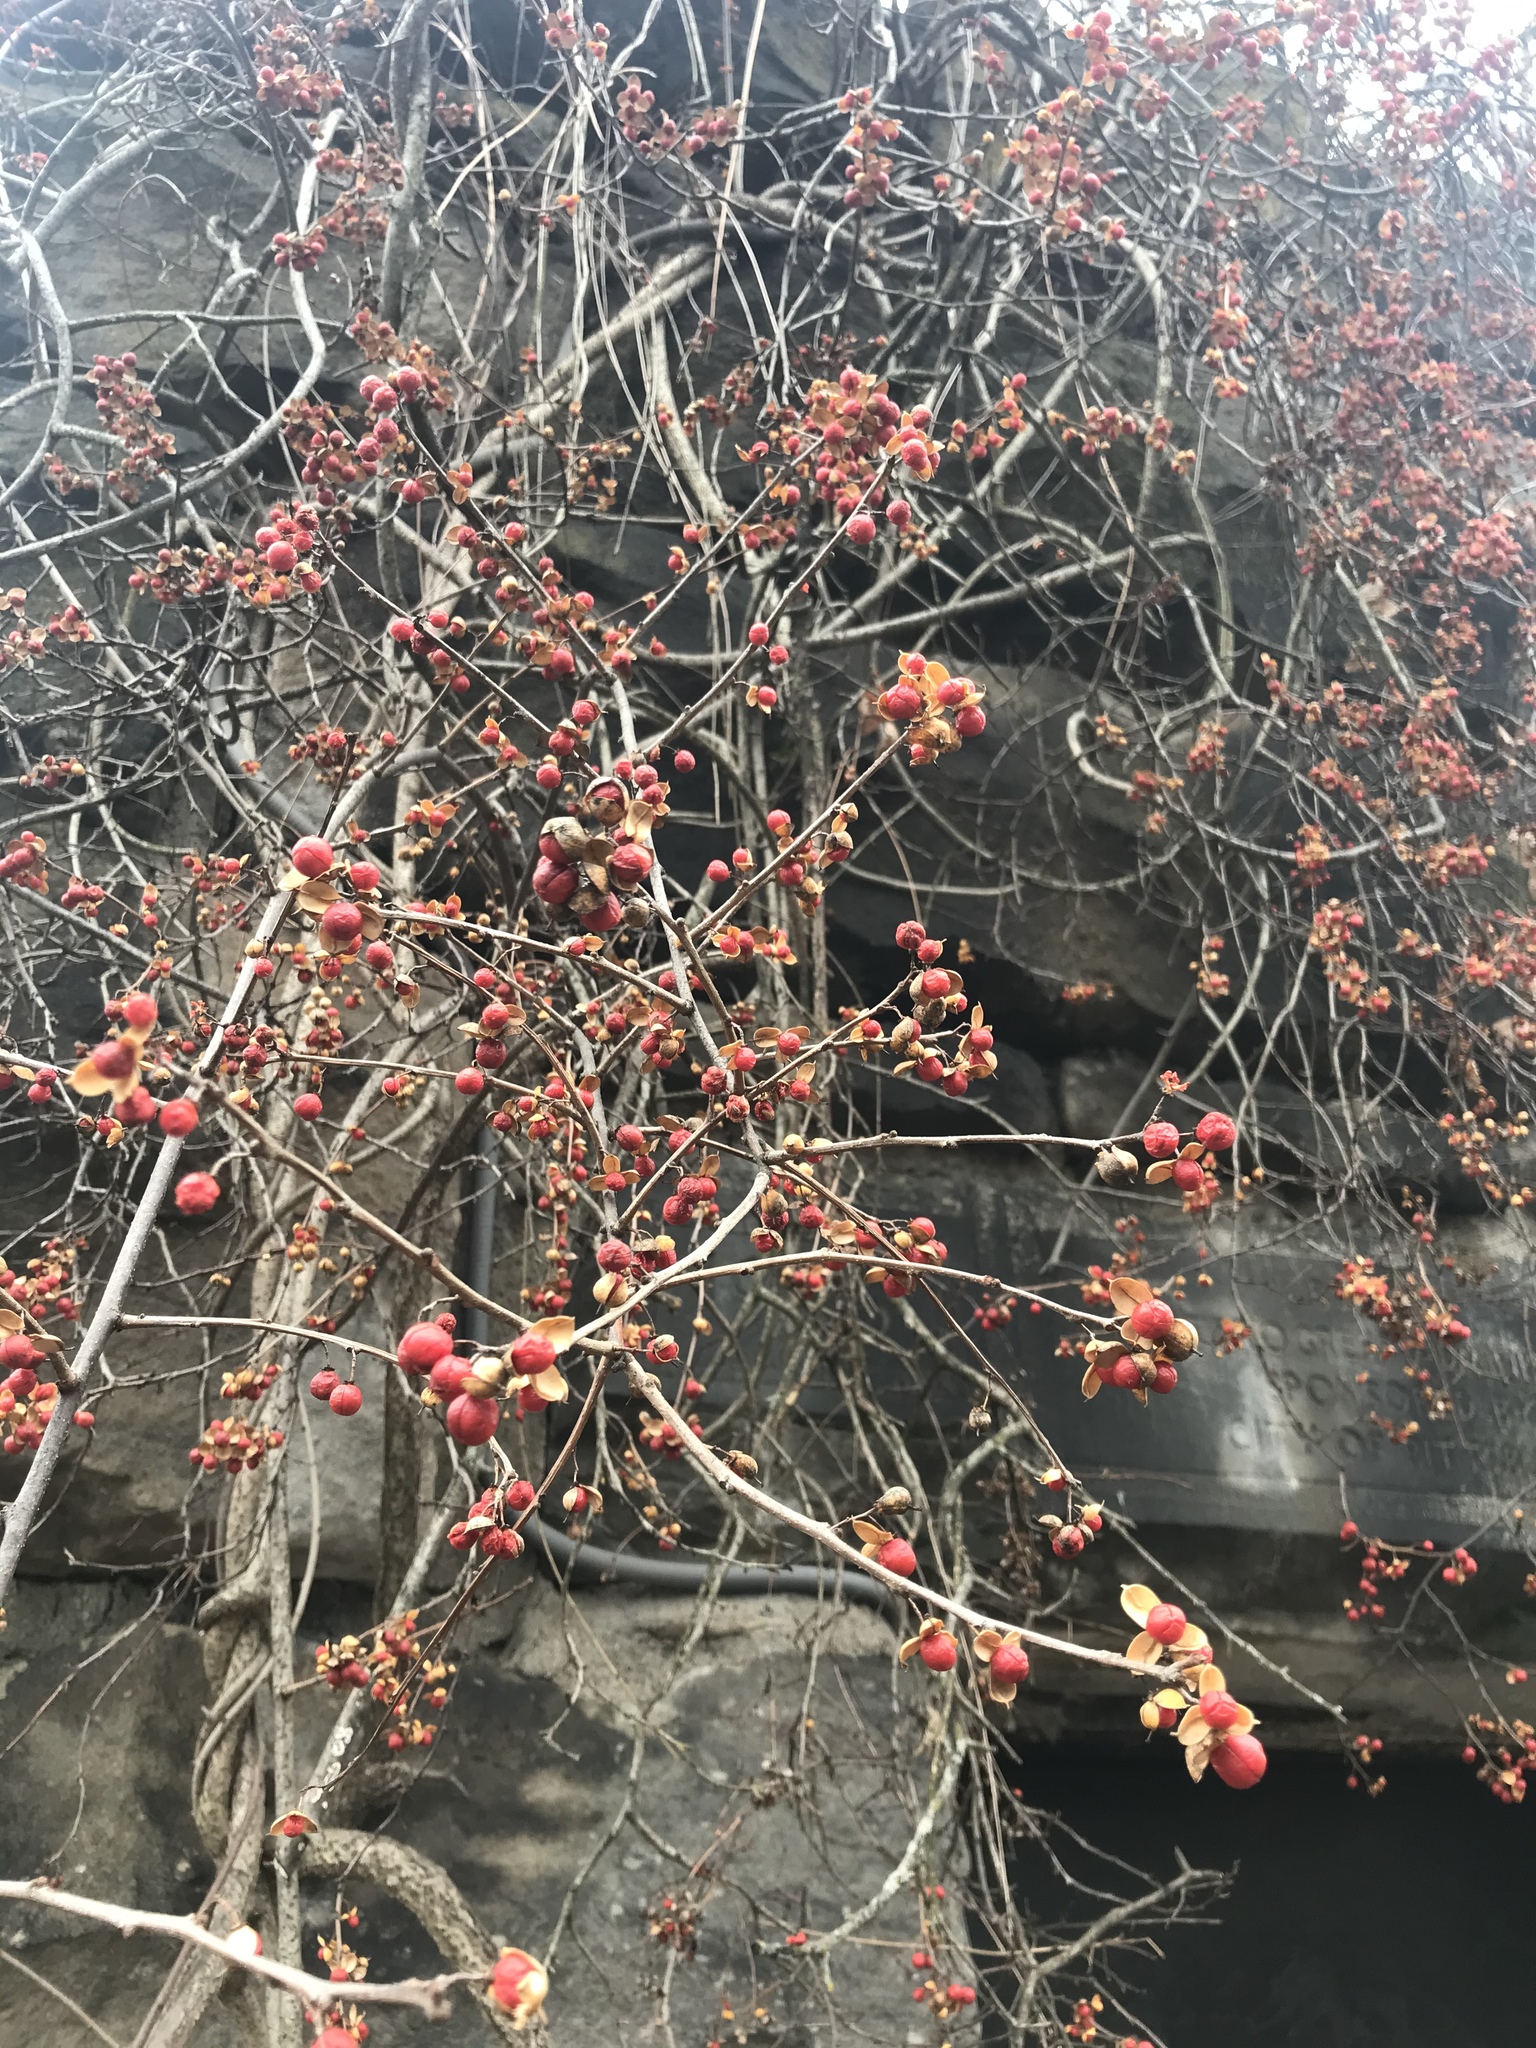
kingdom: Plantae
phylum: Tracheophyta
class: Magnoliopsida
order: Celastrales
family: Celastraceae
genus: Celastrus
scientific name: Celastrus orbiculatus
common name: Oriental bittersweet
